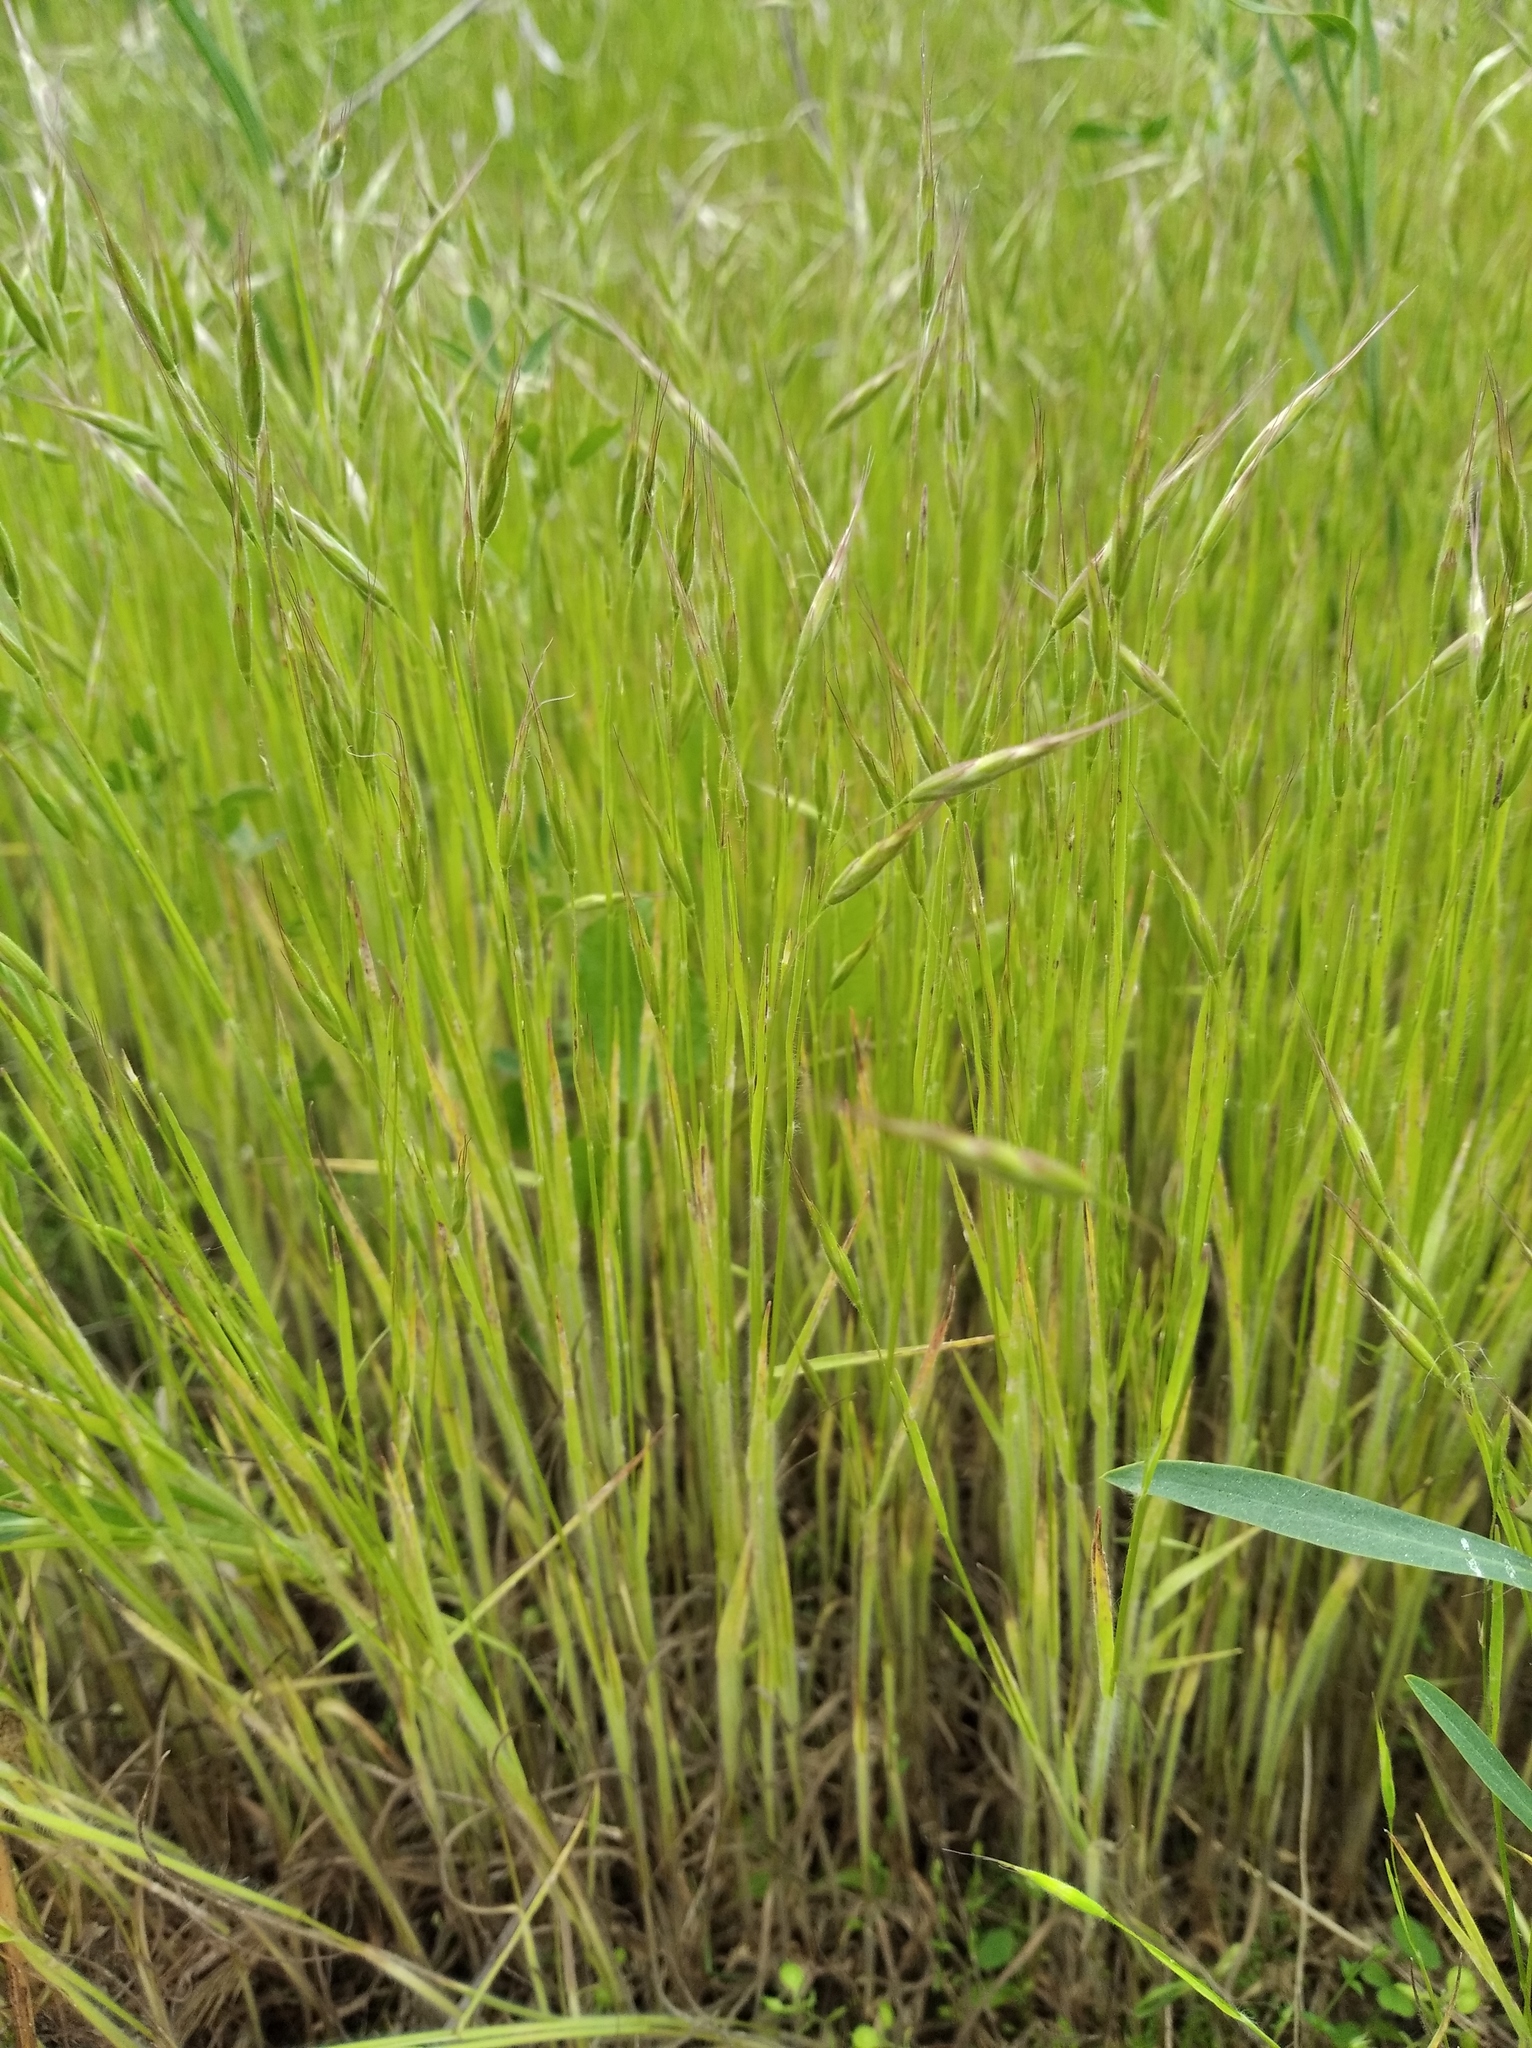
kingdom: Plantae
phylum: Tracheophyta
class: Liliopsida
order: Poales
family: Poaceae
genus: Bromus
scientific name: Bromus squarrosus
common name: Corn brome
